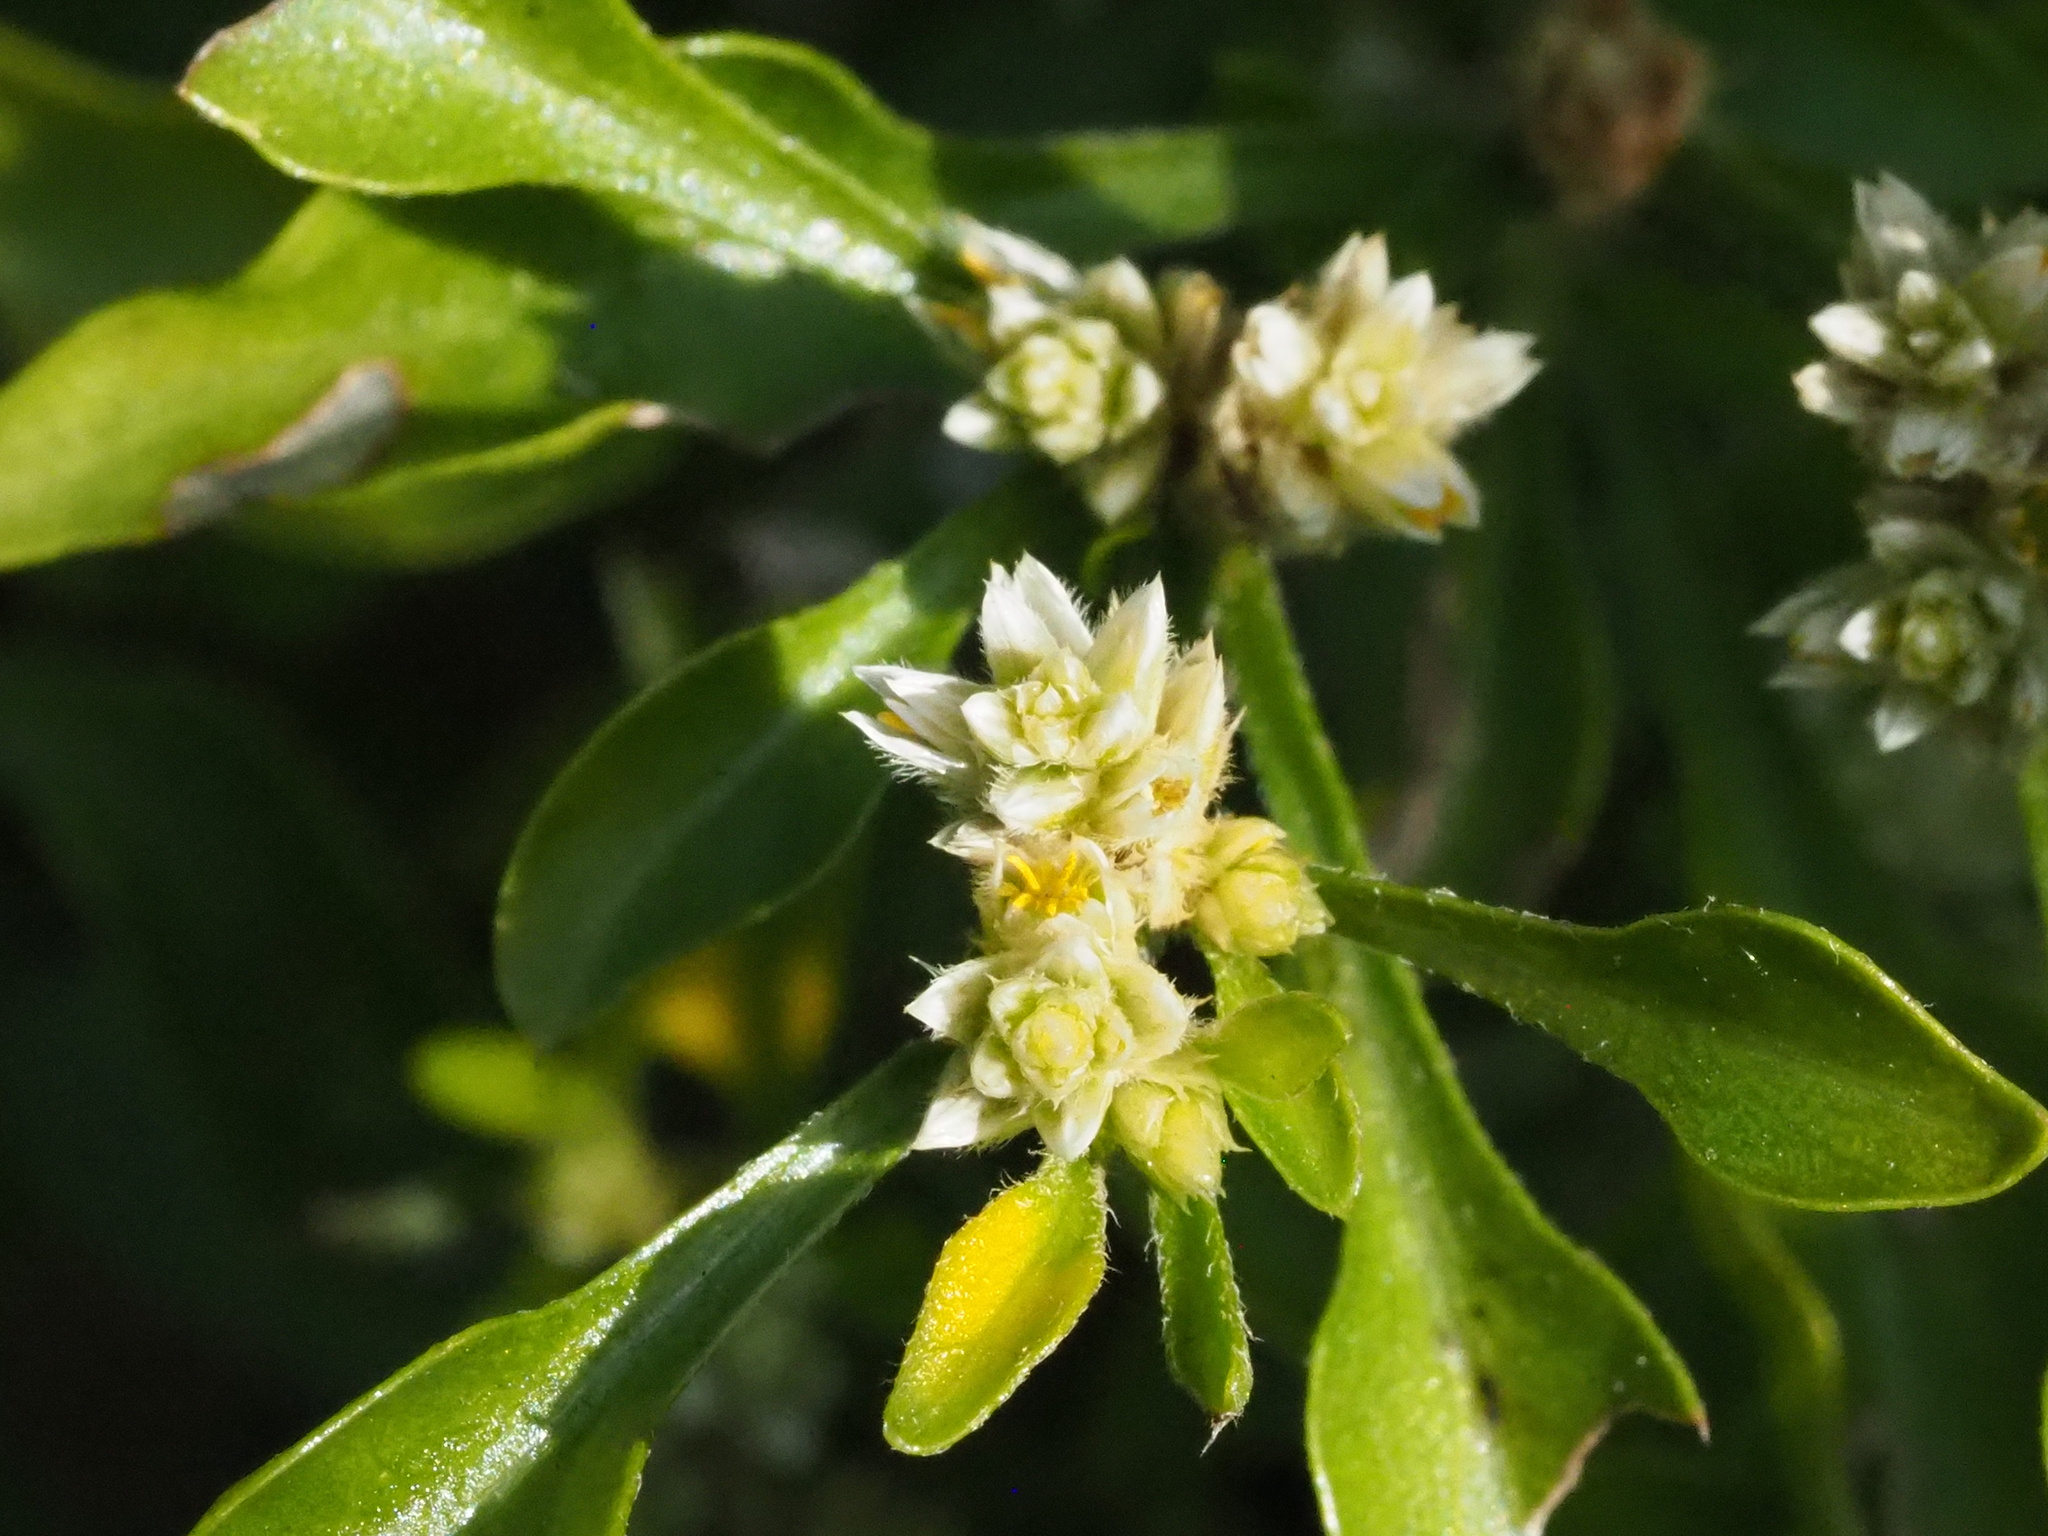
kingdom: Plantae
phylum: Tracheophyta
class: Magnoliopsida
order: Caryophyllales
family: Amaranthaceae
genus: Alternanthera
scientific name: Alternanthera ficoidea
